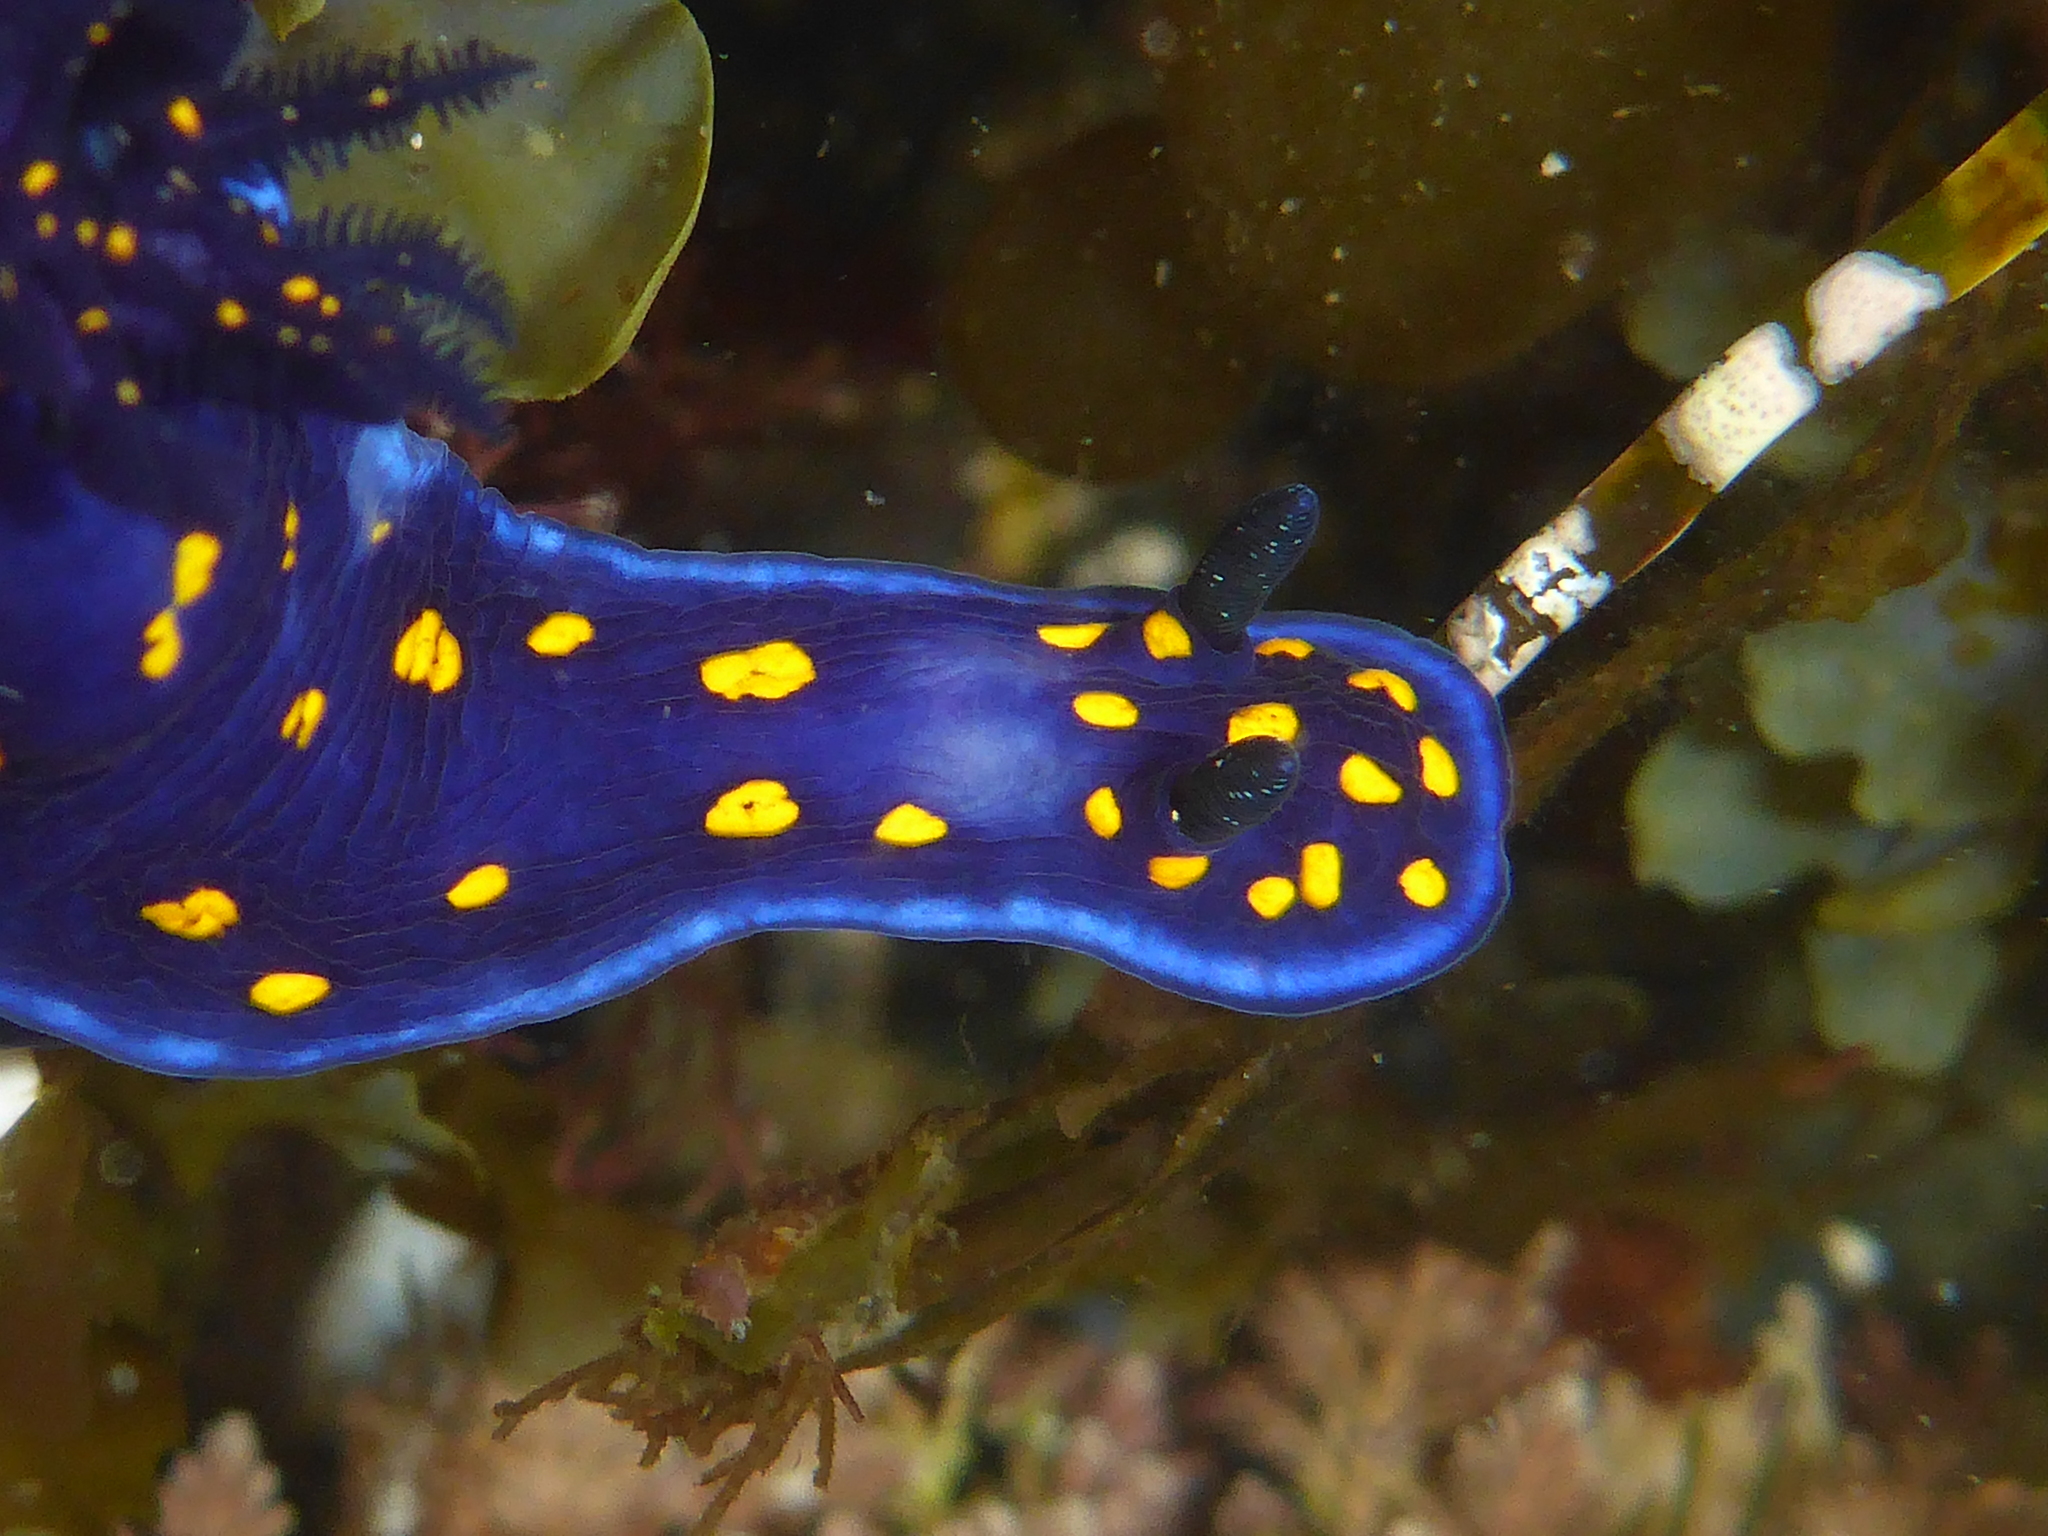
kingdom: Animalia
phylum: Mollusca
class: Gastropoda
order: Nudibranchia
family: Chromodorididae
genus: Felimare
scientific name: Felimare californiensis
